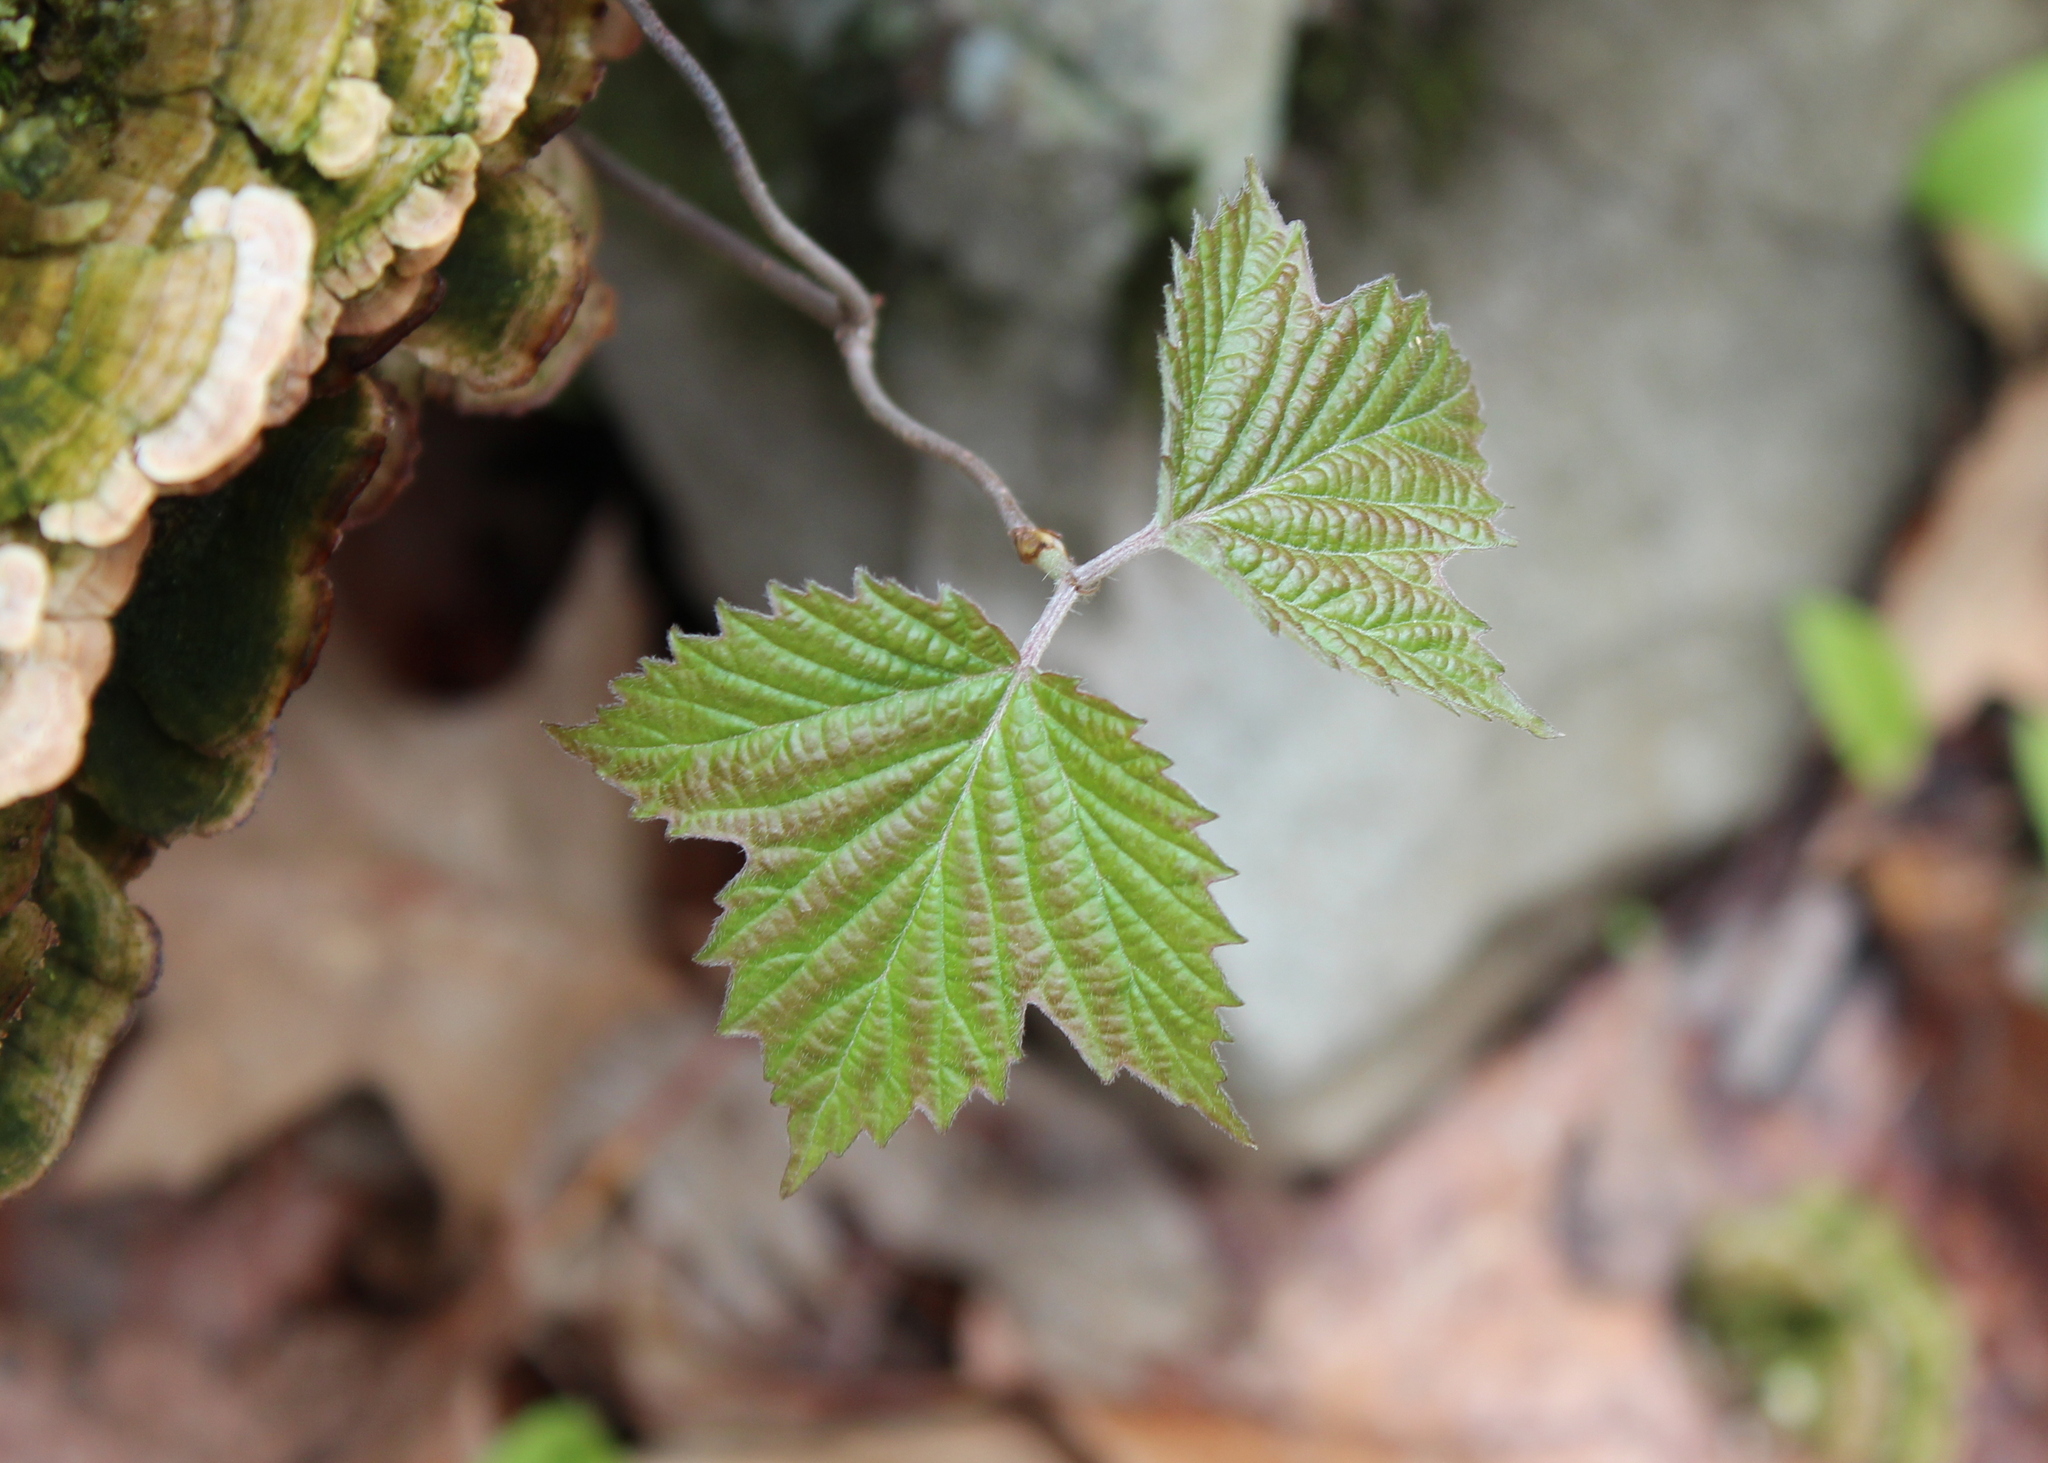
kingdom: Plantae
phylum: Tracheophyta
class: Magnoliopsida
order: Dipsacales
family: Viburnaceae
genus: Viburnum
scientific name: Viburnum acerifolium
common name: Dockmackie
